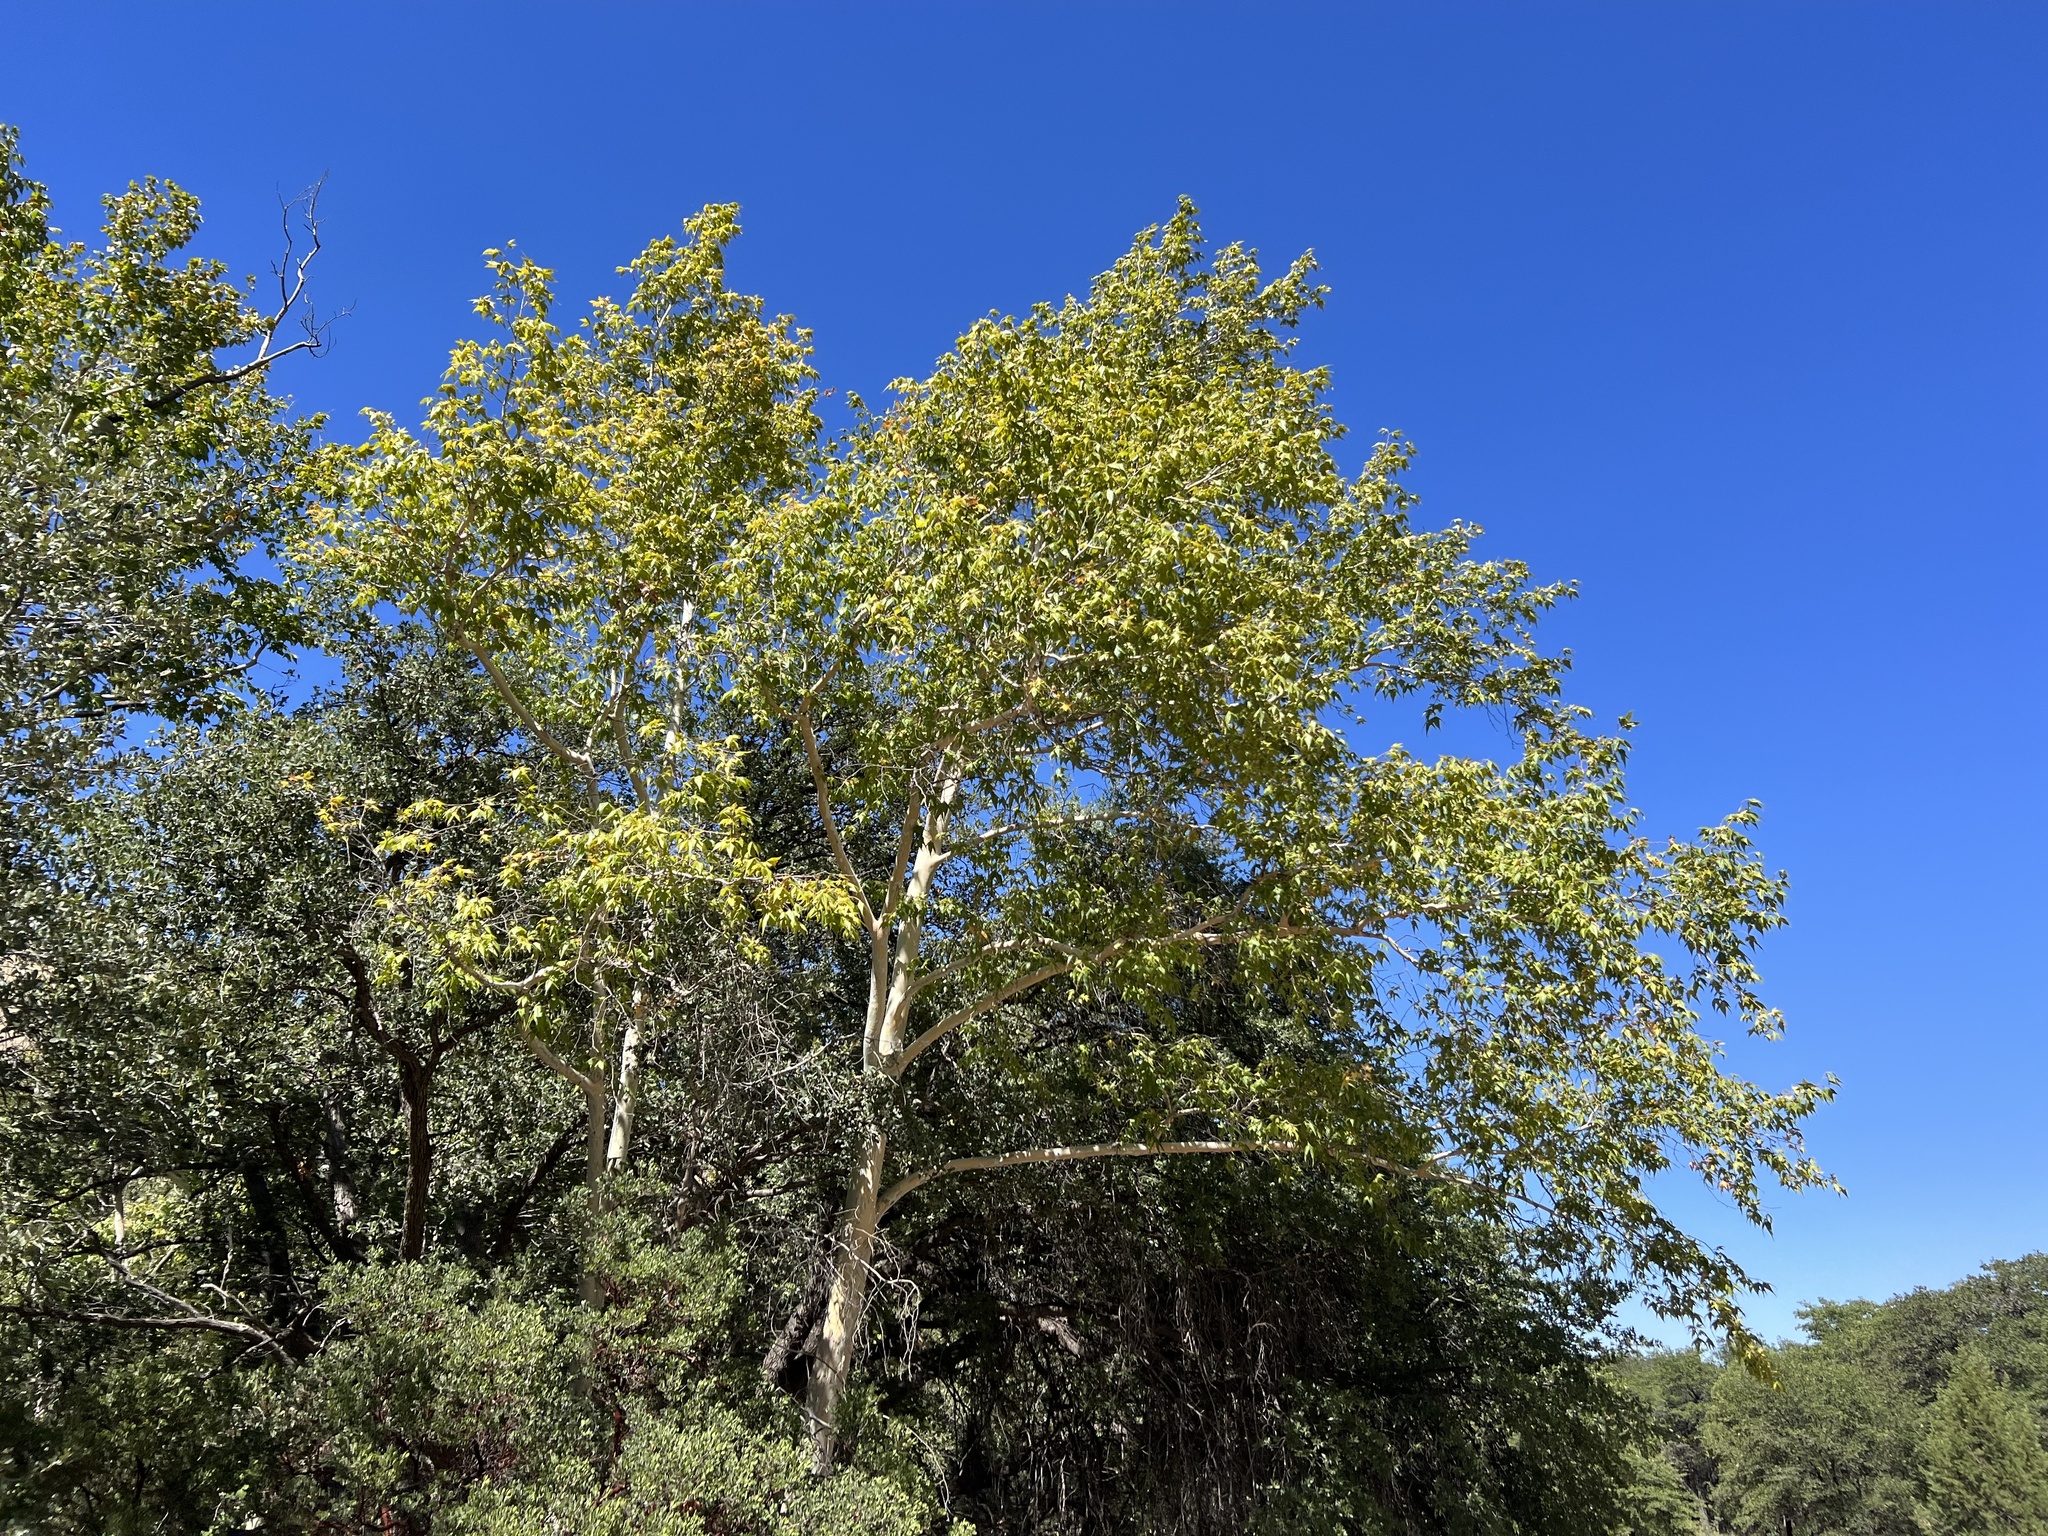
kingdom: Plantae
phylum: Tracheophyta
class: Magnoliopsida
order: Proteales
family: Platanaceae
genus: Platanus
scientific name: Platanus wrightii
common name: Arizona sycamore
